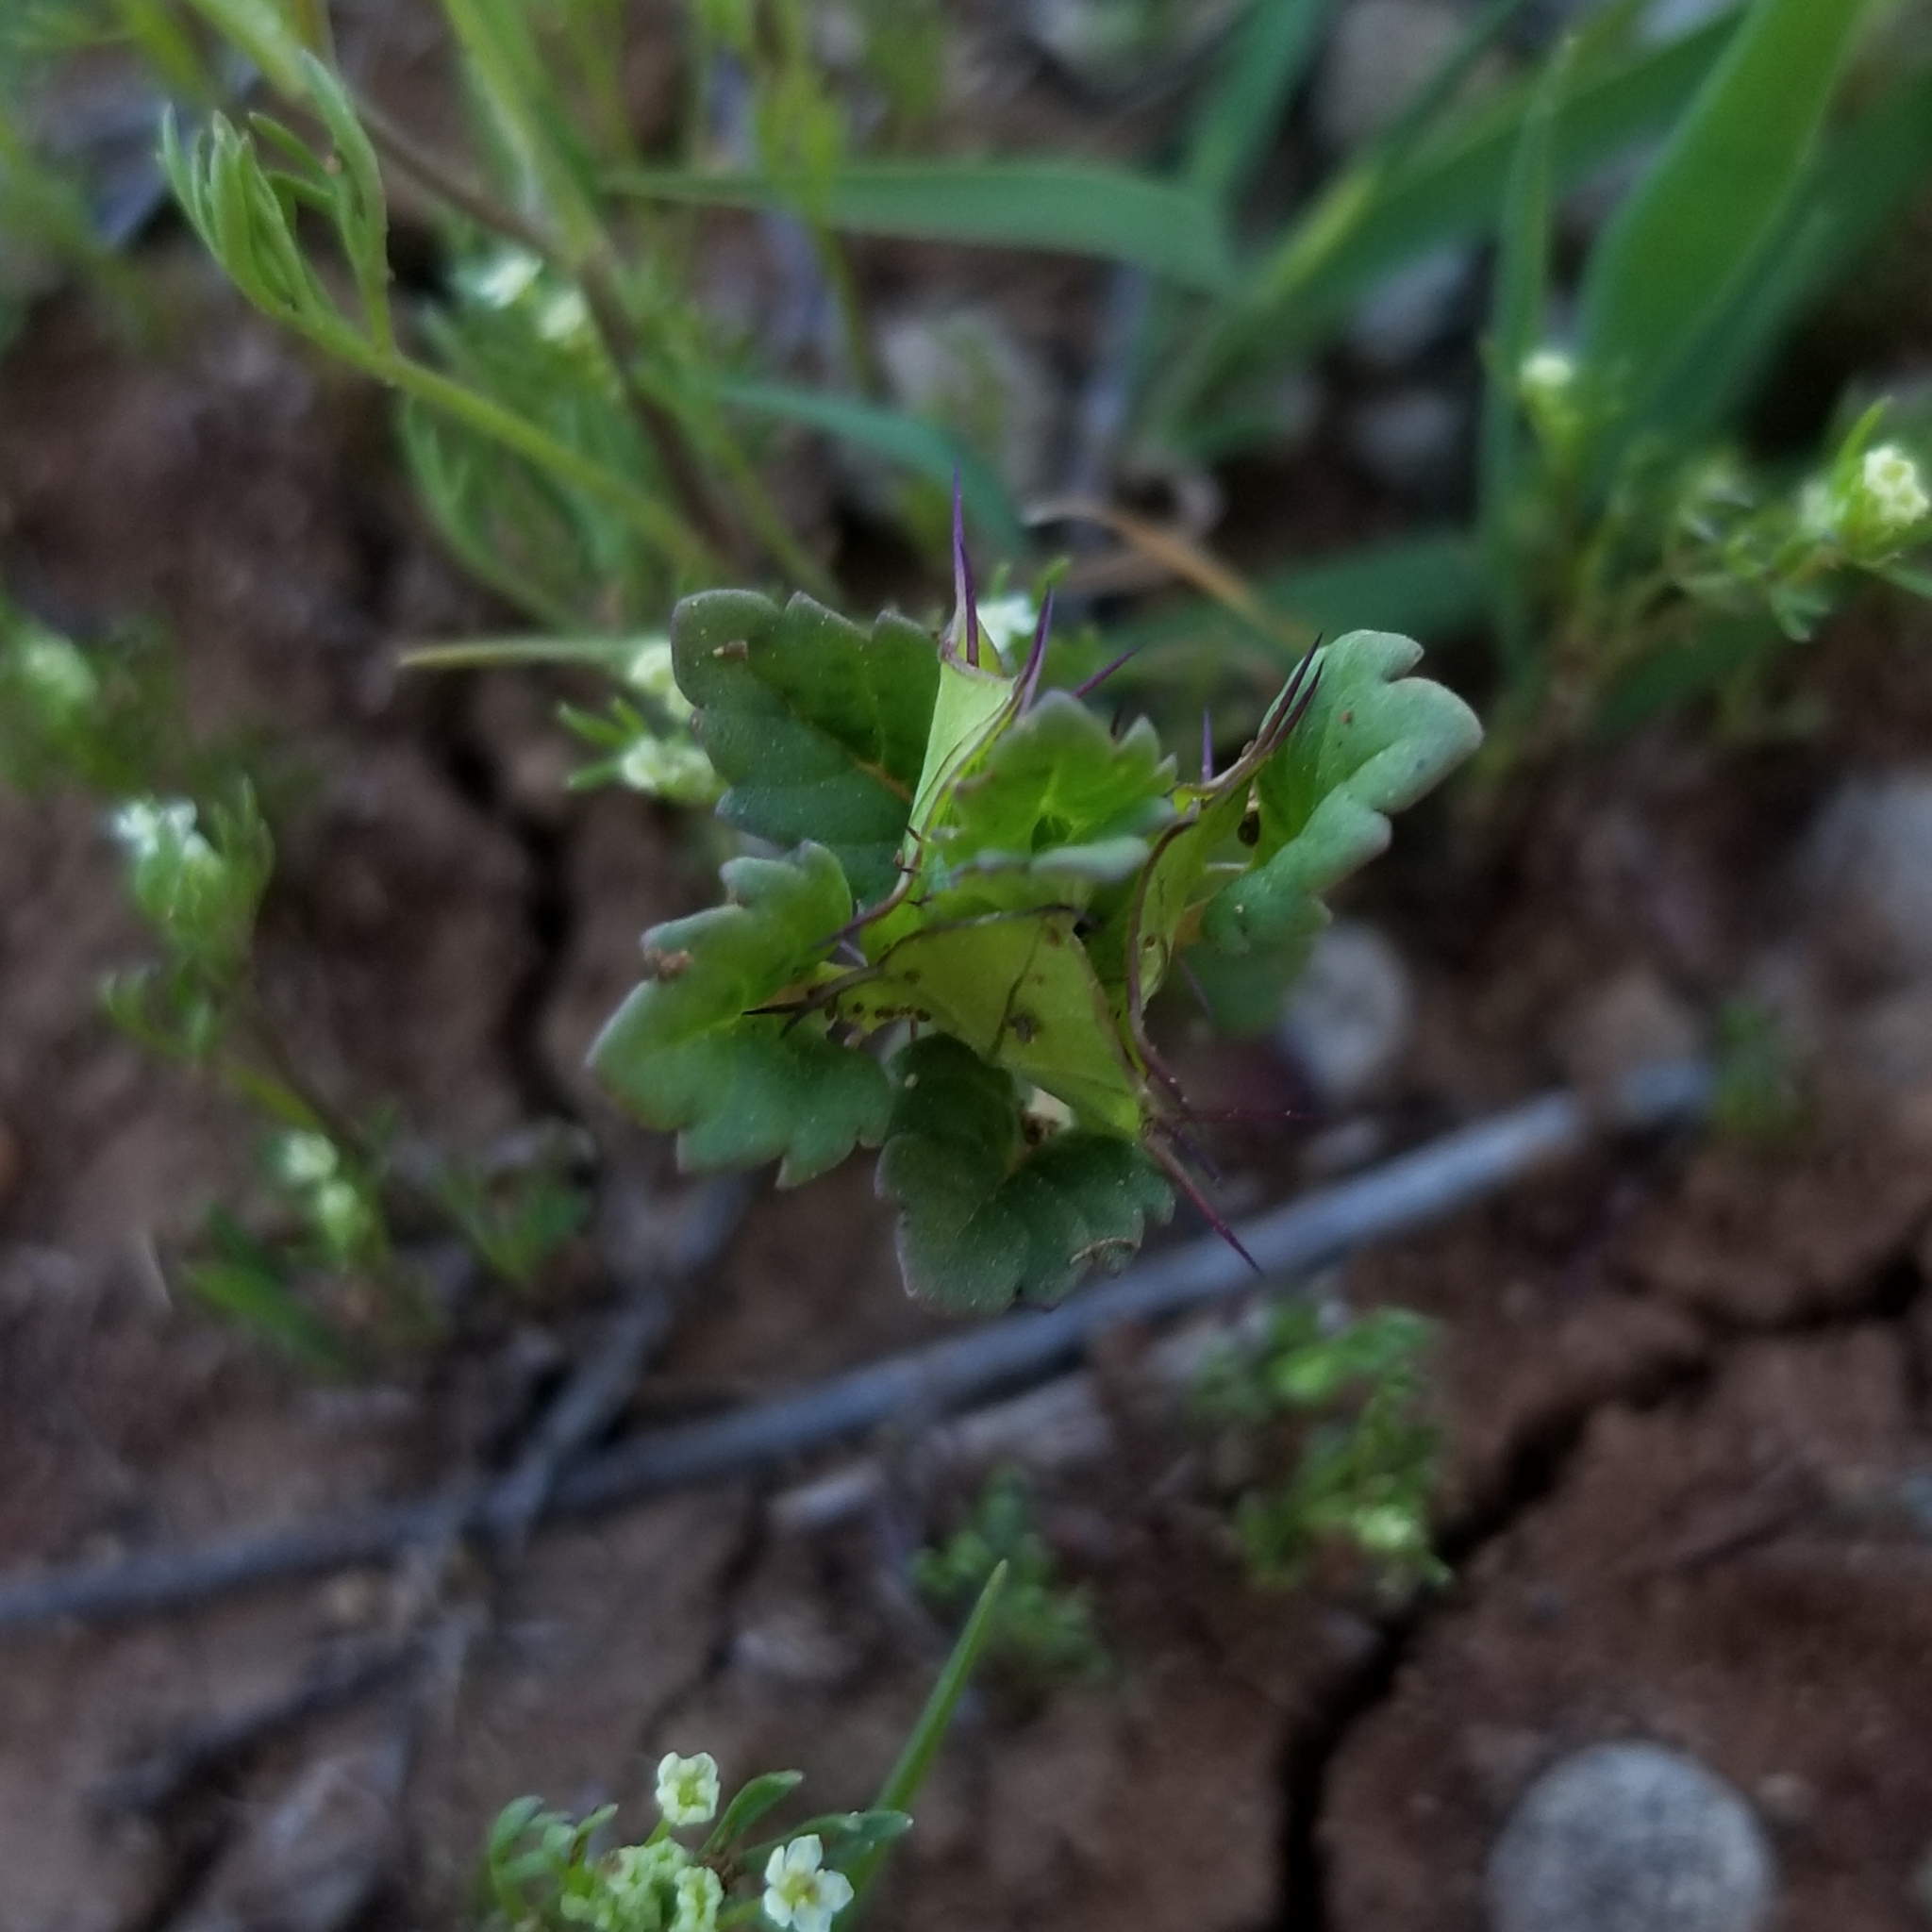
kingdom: Plantae
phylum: Tracheophyta
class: Magnoliopsida
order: Lamiales
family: Lamiaceae
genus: Acanthomintha
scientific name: Acanthomintha ilicifolia
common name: San diego thorn-mint
